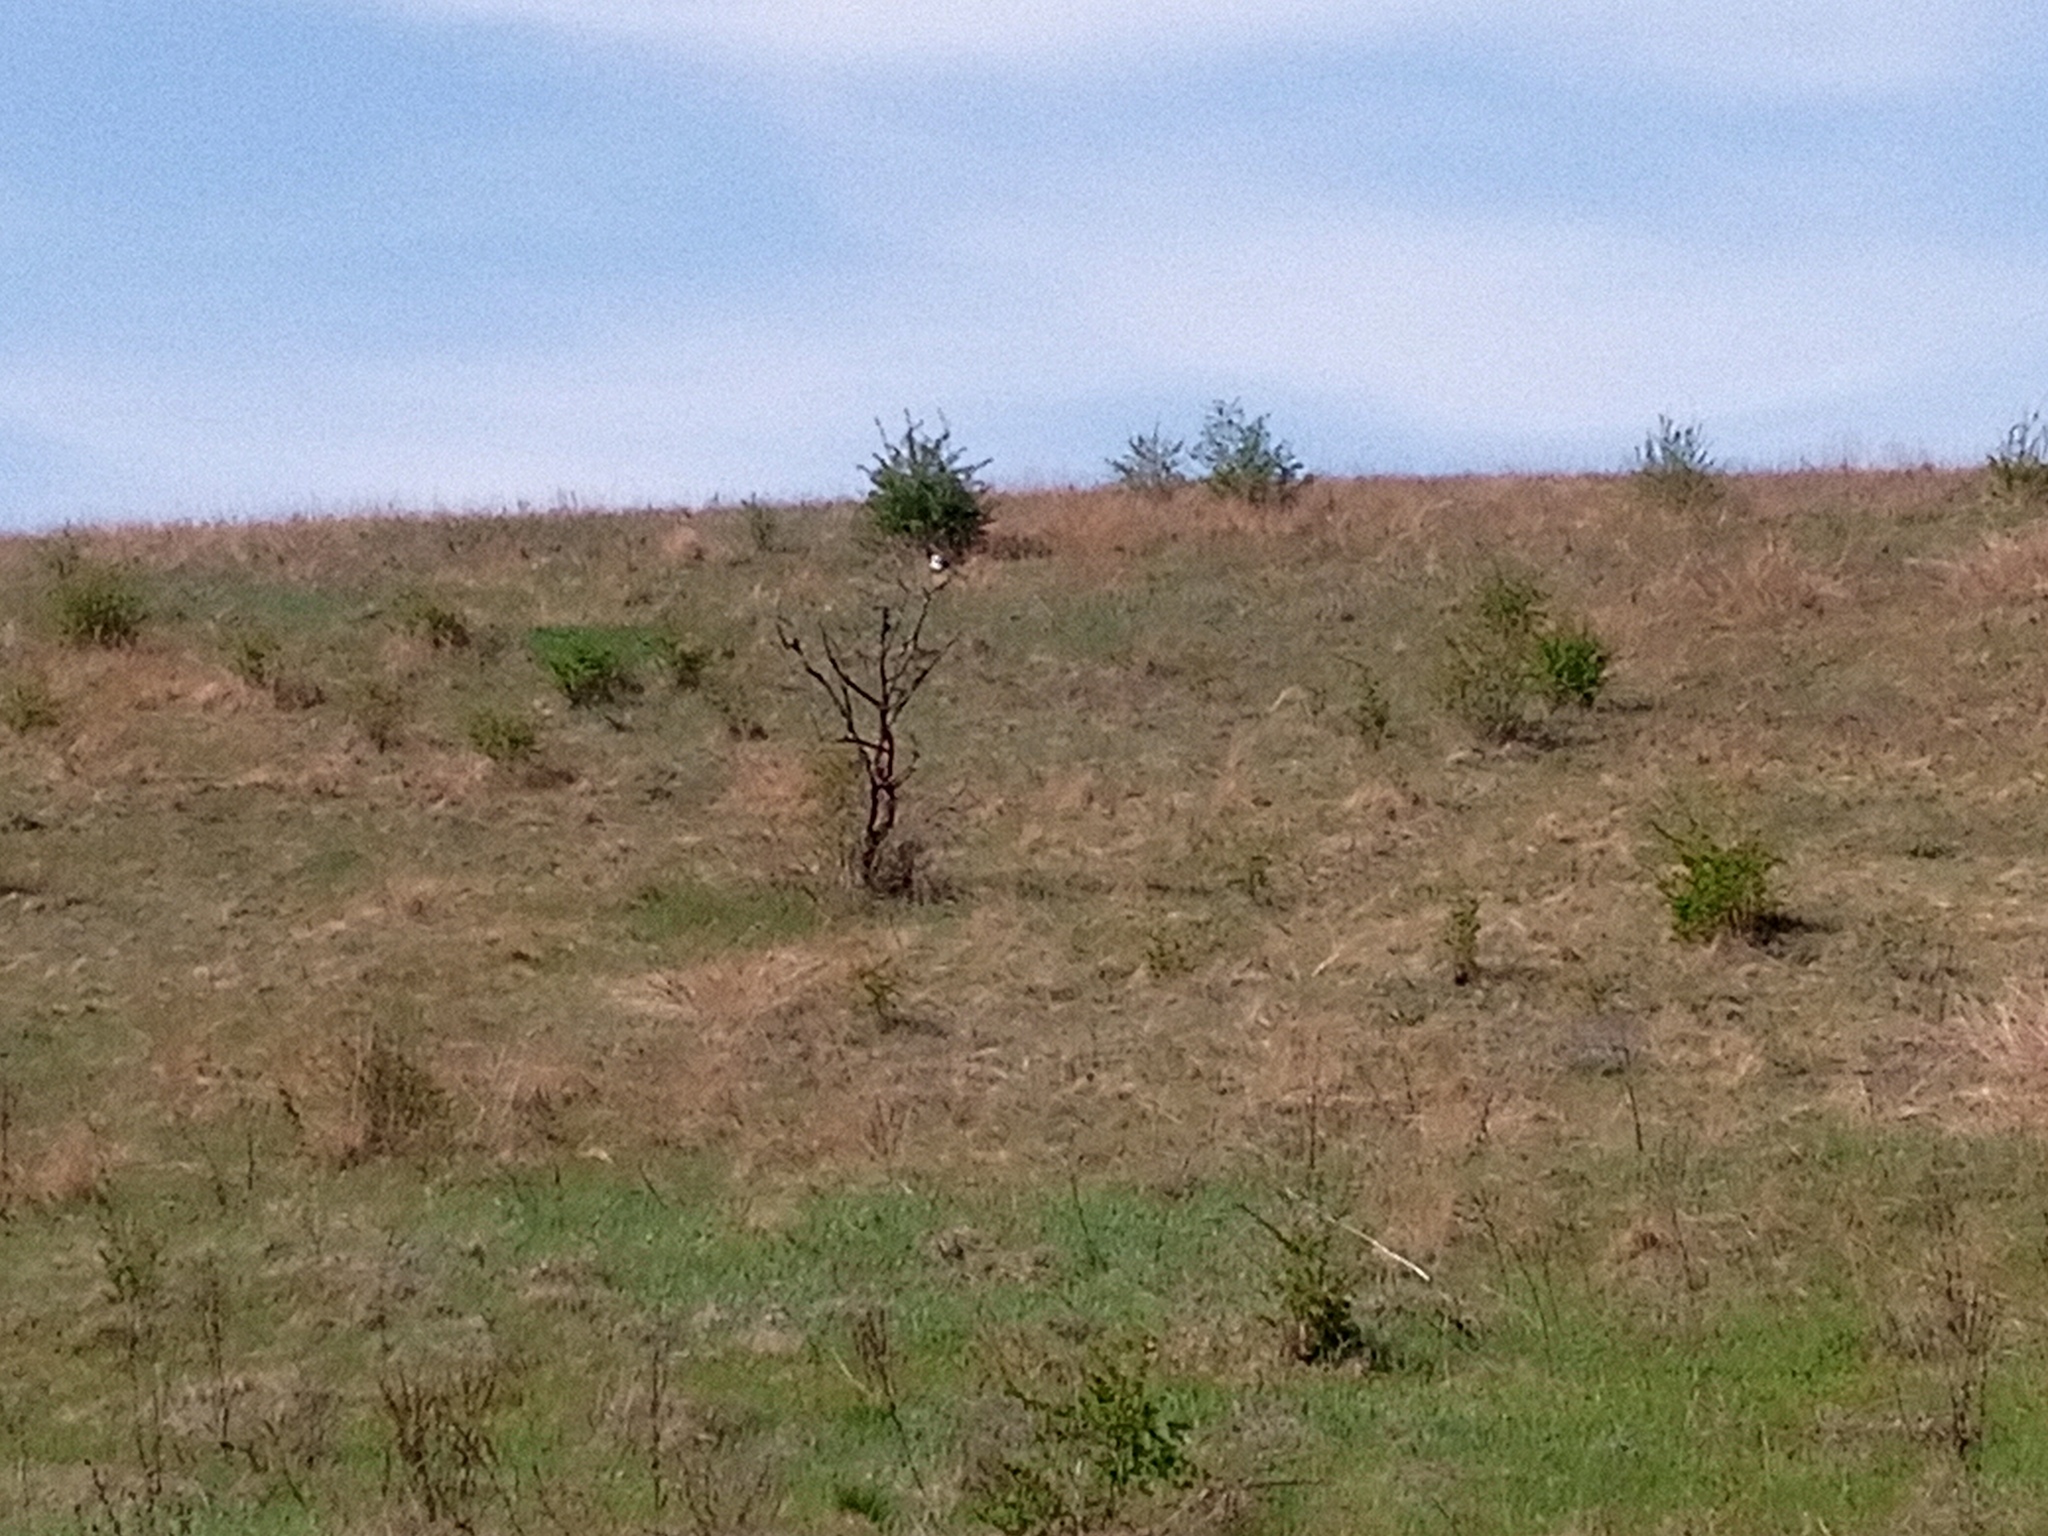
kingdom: Animalia
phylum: Chordata
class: Aves
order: Passeriformes
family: Corvidae
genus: Pica
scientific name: Pica pica
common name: Eurasian magpie
